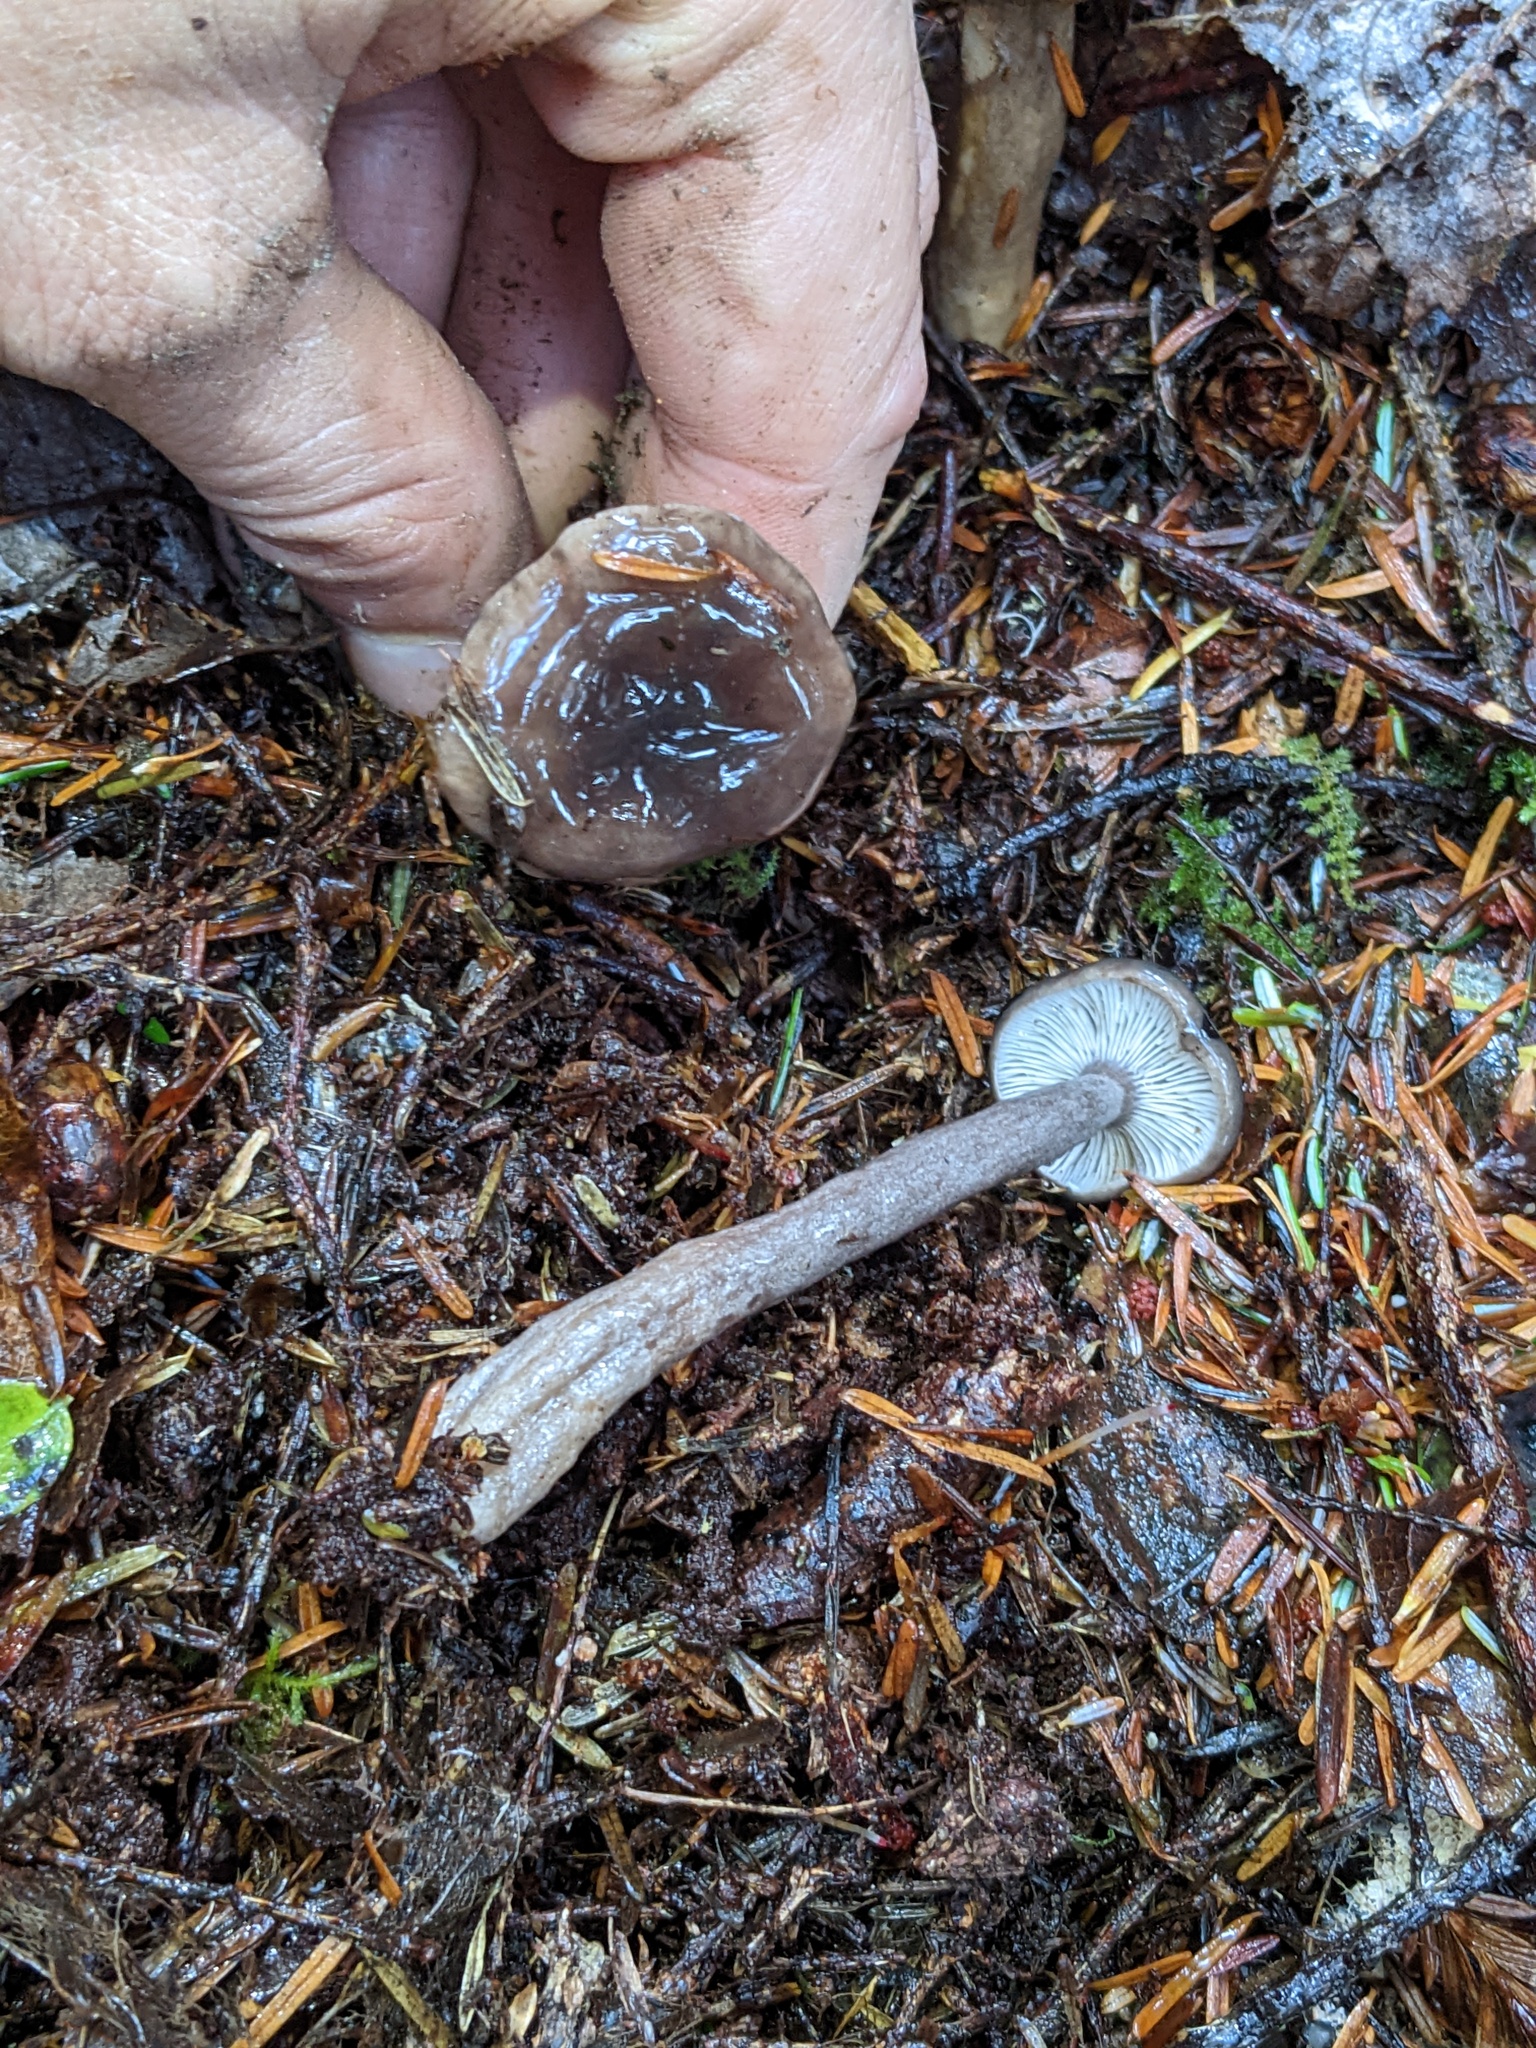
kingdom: Fungi
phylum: Basidiomycota
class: Agaricomycetes
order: Russulales
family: Russulaceae
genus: Lactarius
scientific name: Lactarius pseudomucidus
